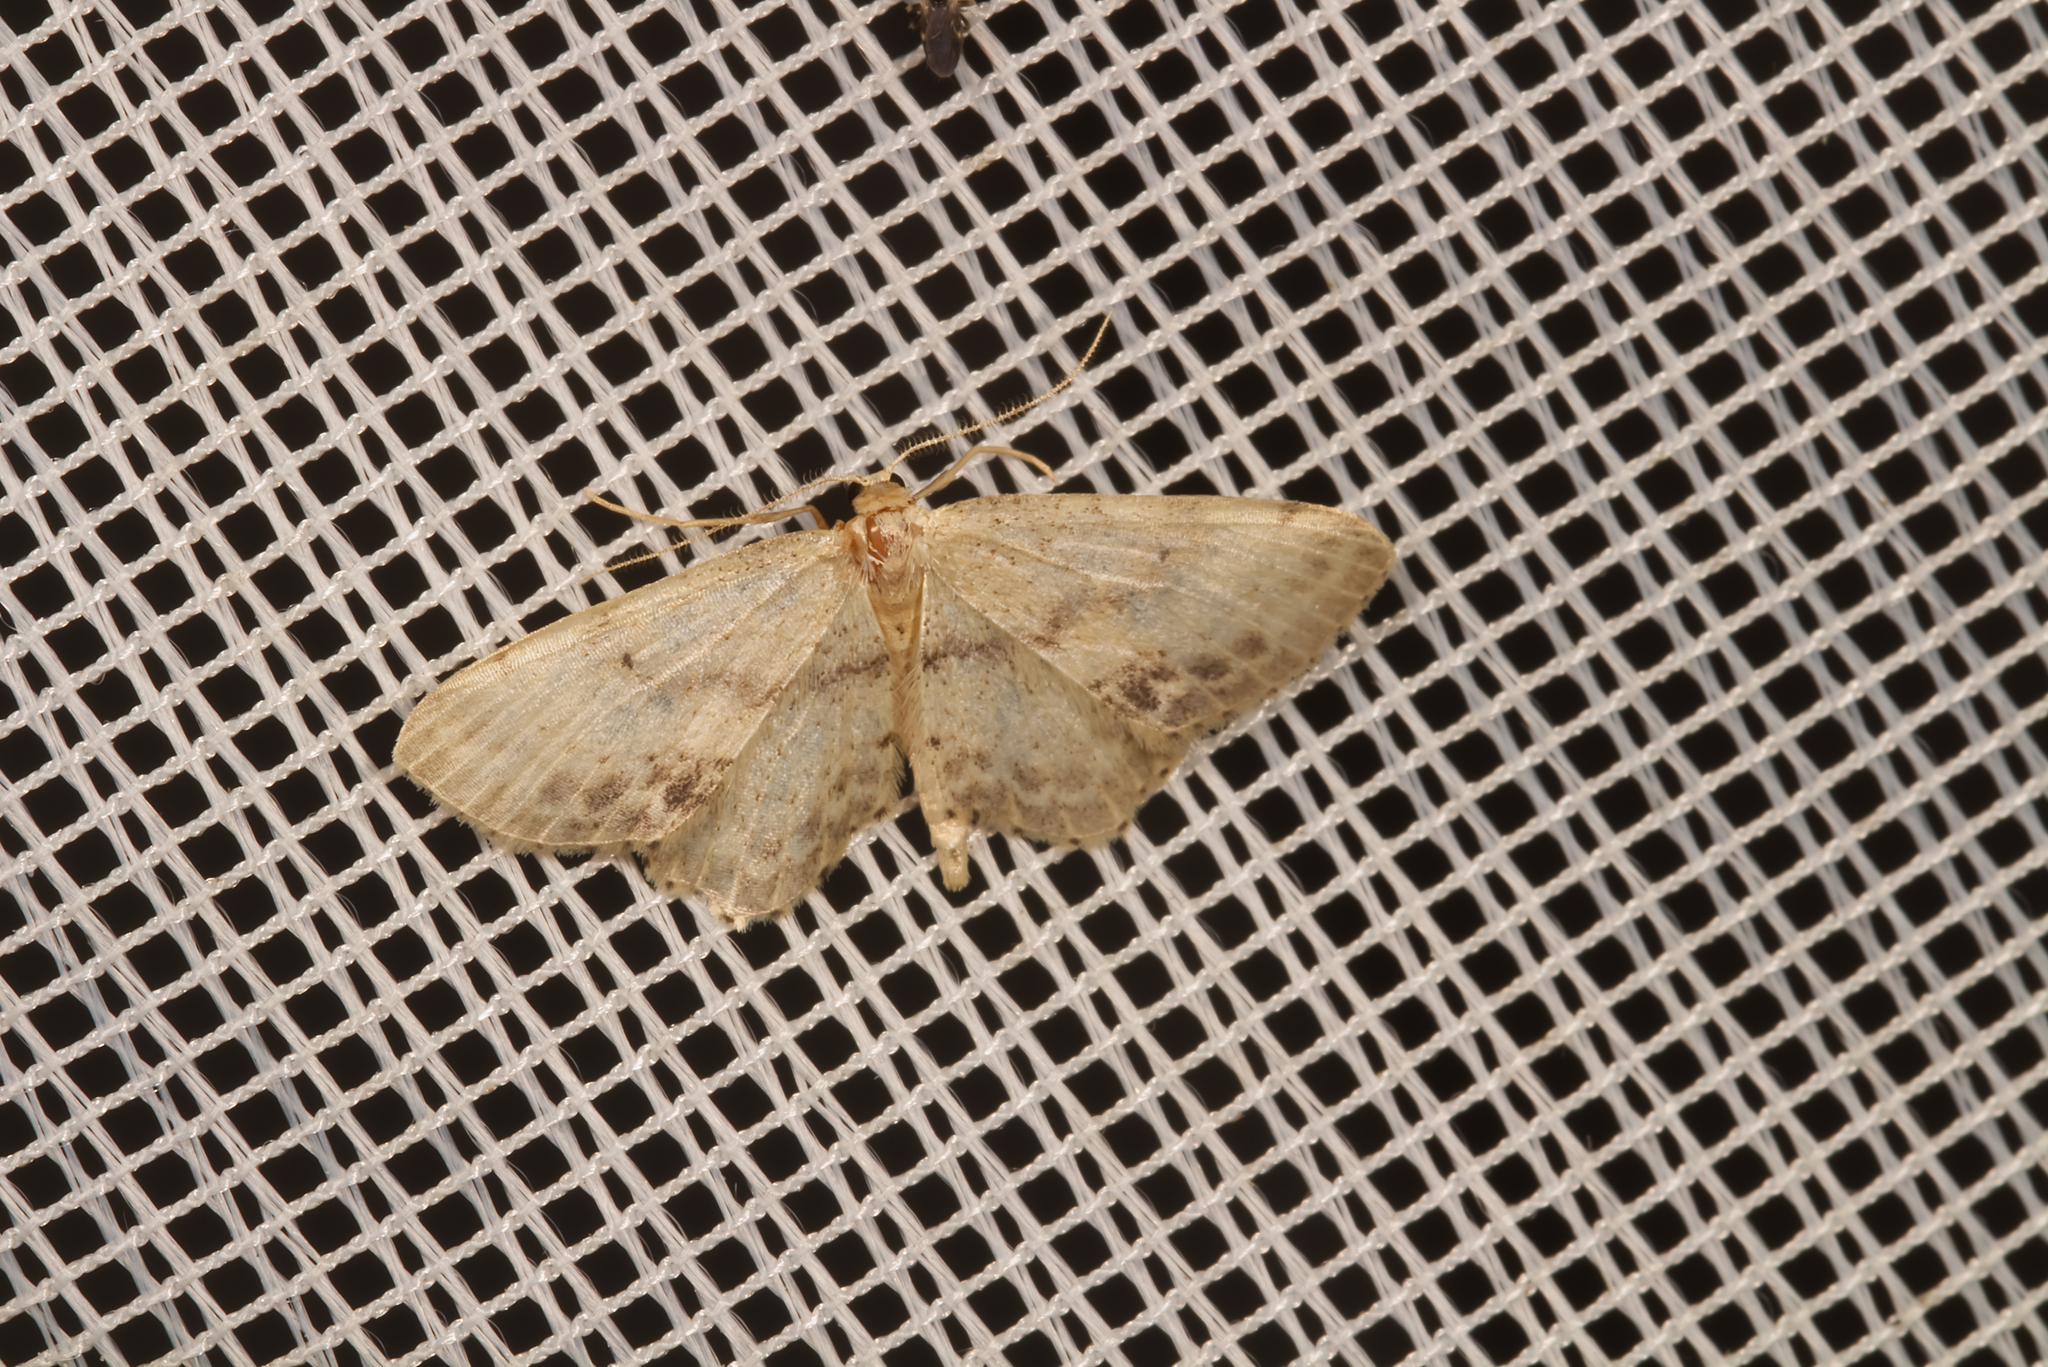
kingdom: Animalia
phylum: Arthropoda
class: Insecta
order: Lepidoptera
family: Geometridae
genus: Idaea
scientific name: Idaea dimidiata
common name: Single-dotted wave
